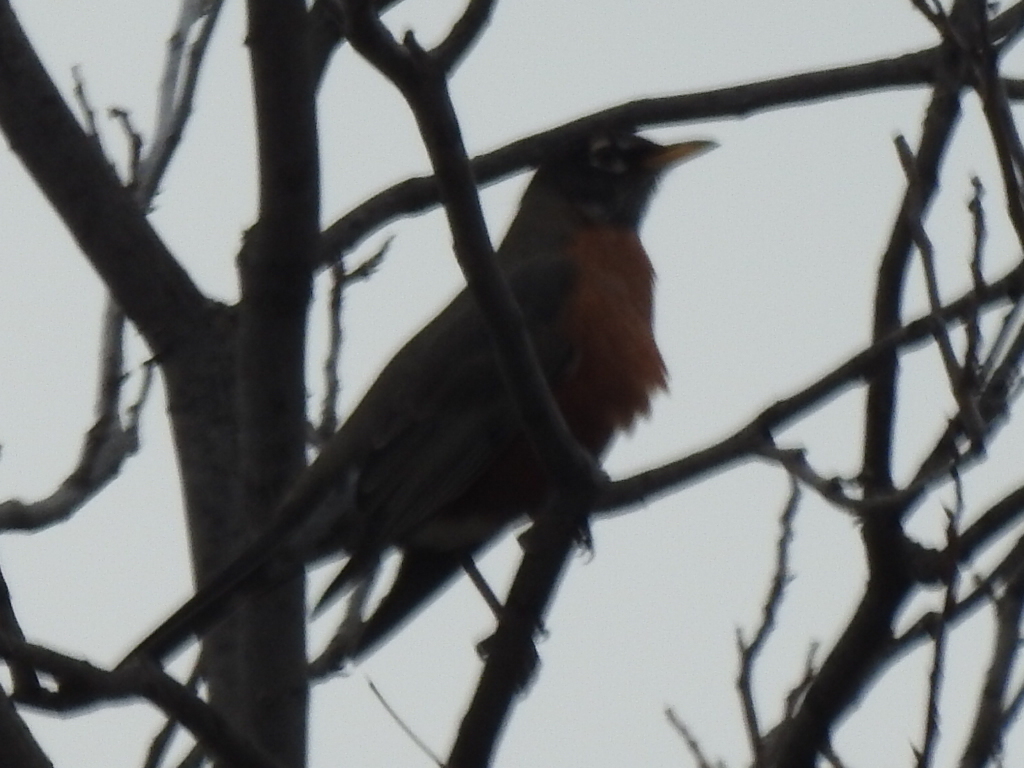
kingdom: Animalia
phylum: Chordata
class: Aves
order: Passeriformes
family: Turdidae
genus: Turdus
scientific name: Turdus migratorius
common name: American robin
